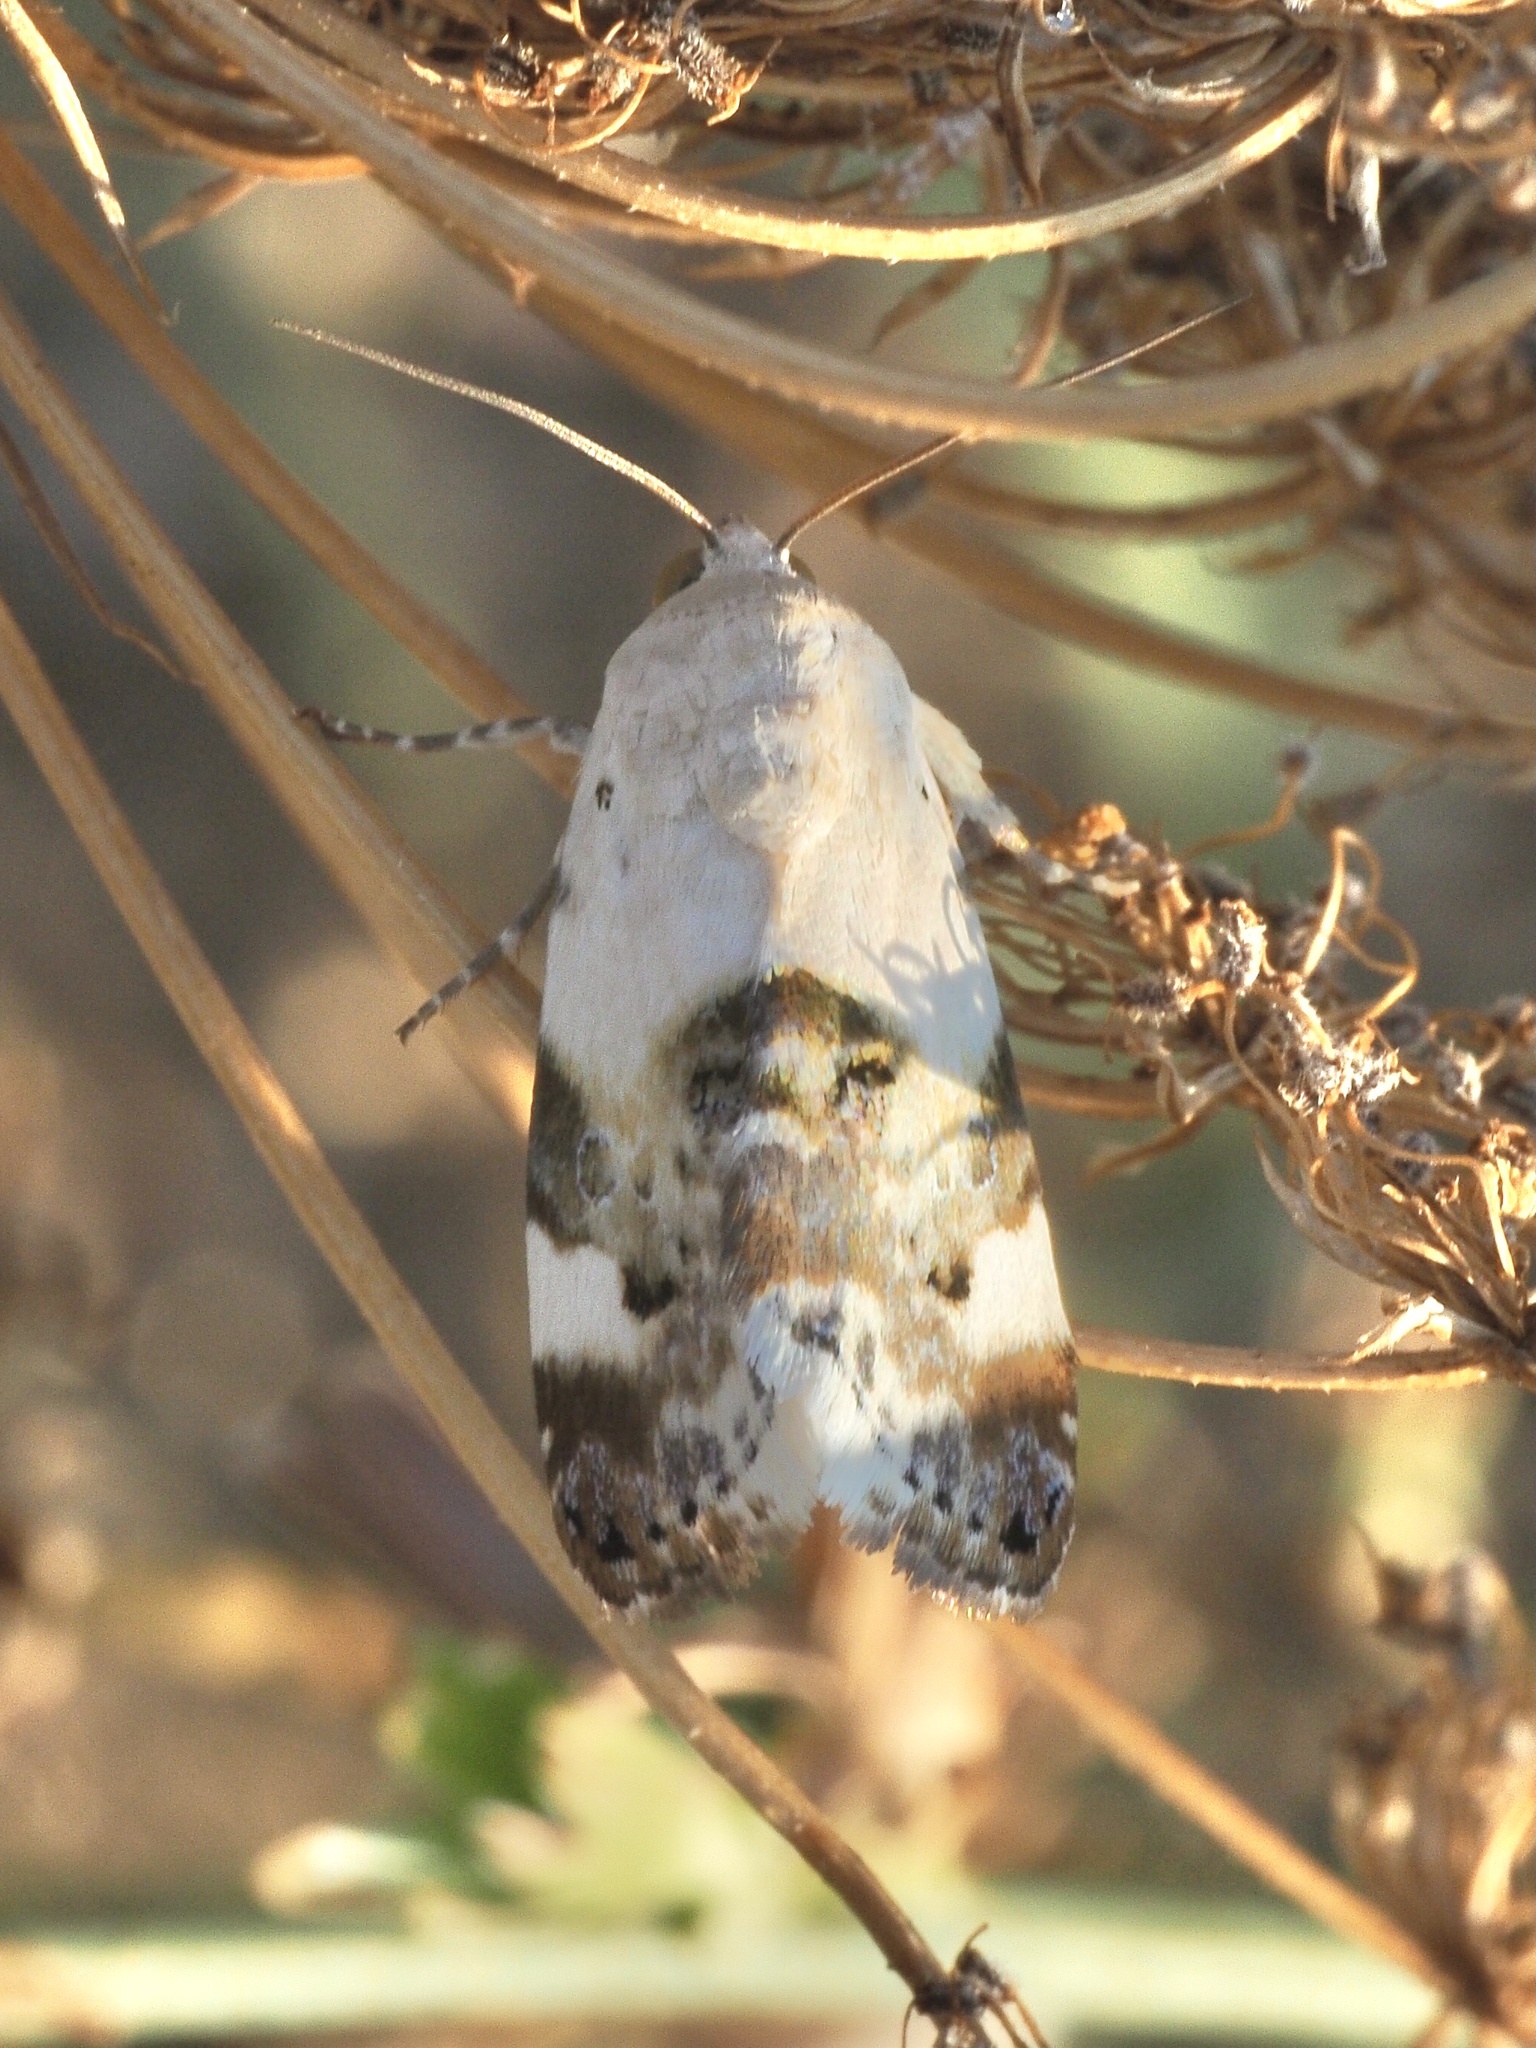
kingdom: Animalia
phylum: Arthropoda
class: Insecta
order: Lepidoptera
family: Noctuidae
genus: Acontia
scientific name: Acontia lucida
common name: Pale shoulder
